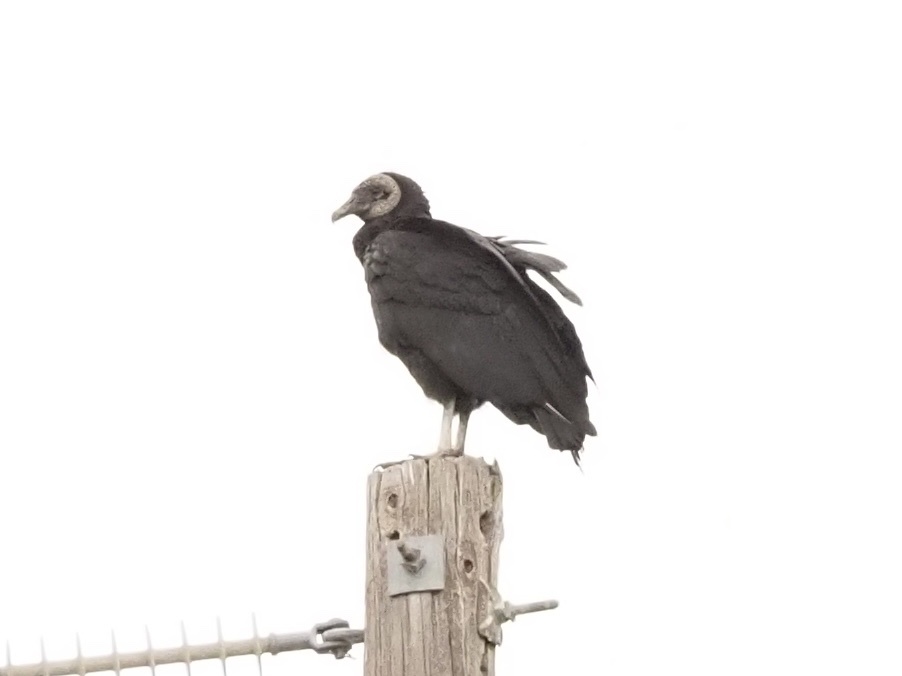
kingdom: Animalia
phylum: Chordata
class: Aves
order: Accipitriformes
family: Cathartidae
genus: Coragyps
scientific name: Coragyps atratus
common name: Black vulture
